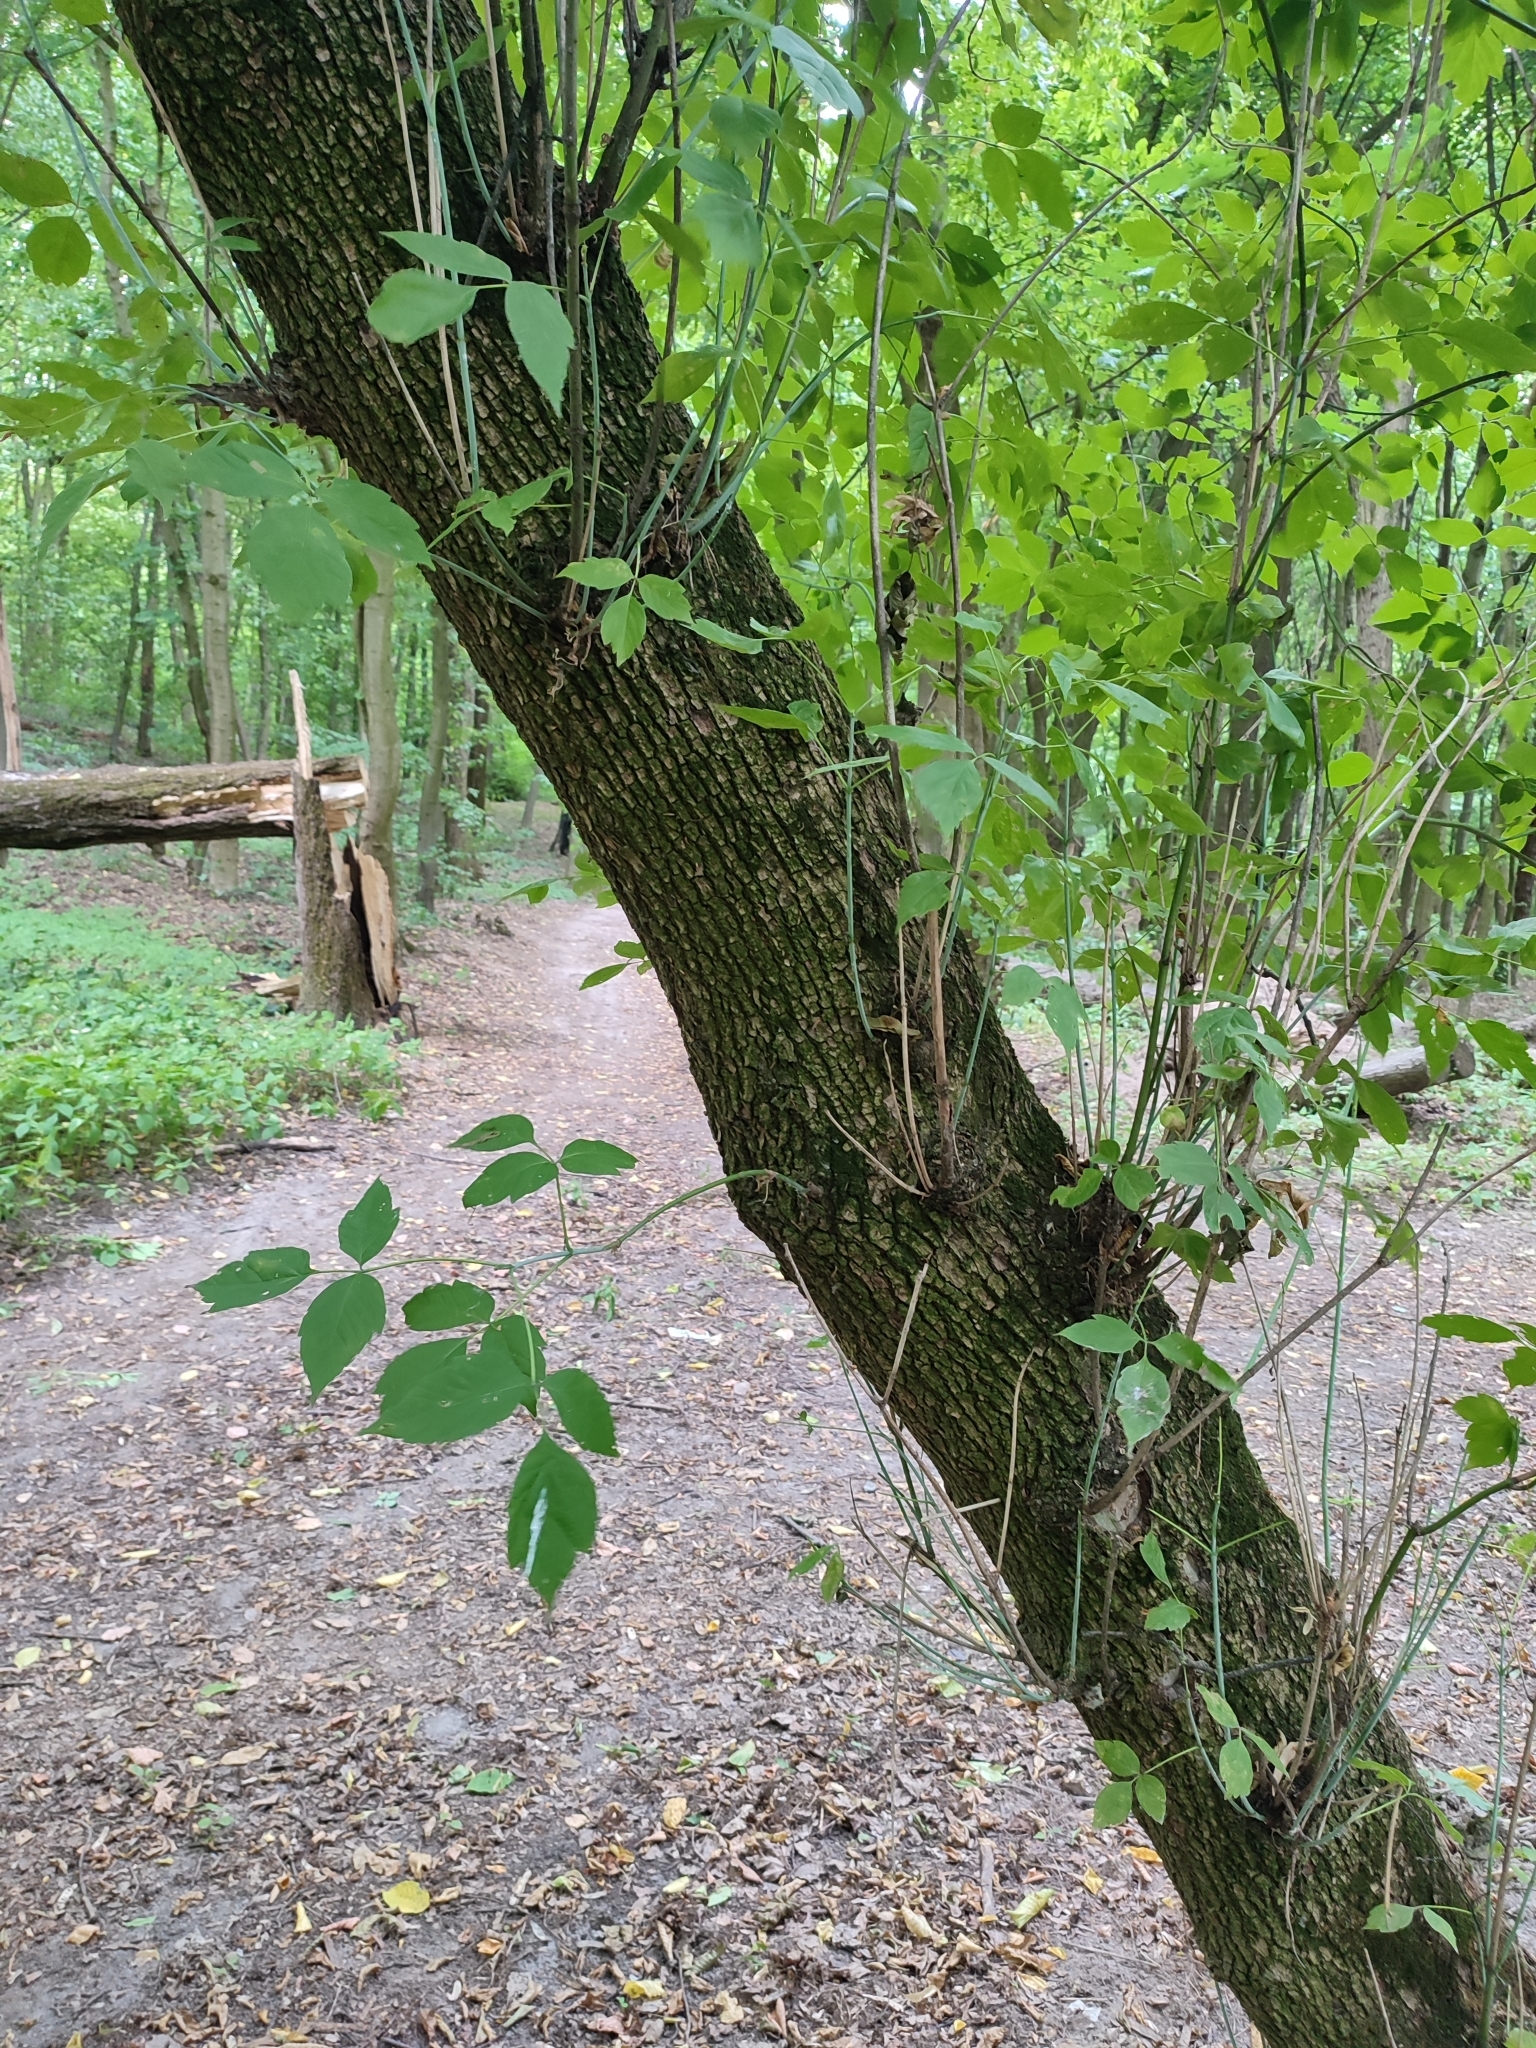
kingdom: Plantae
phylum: Tracheophyta
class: Magnoliopsida
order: Sapindales
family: Sapindaceae
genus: Acer
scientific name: Acer negundo
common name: Ashleaf maple
